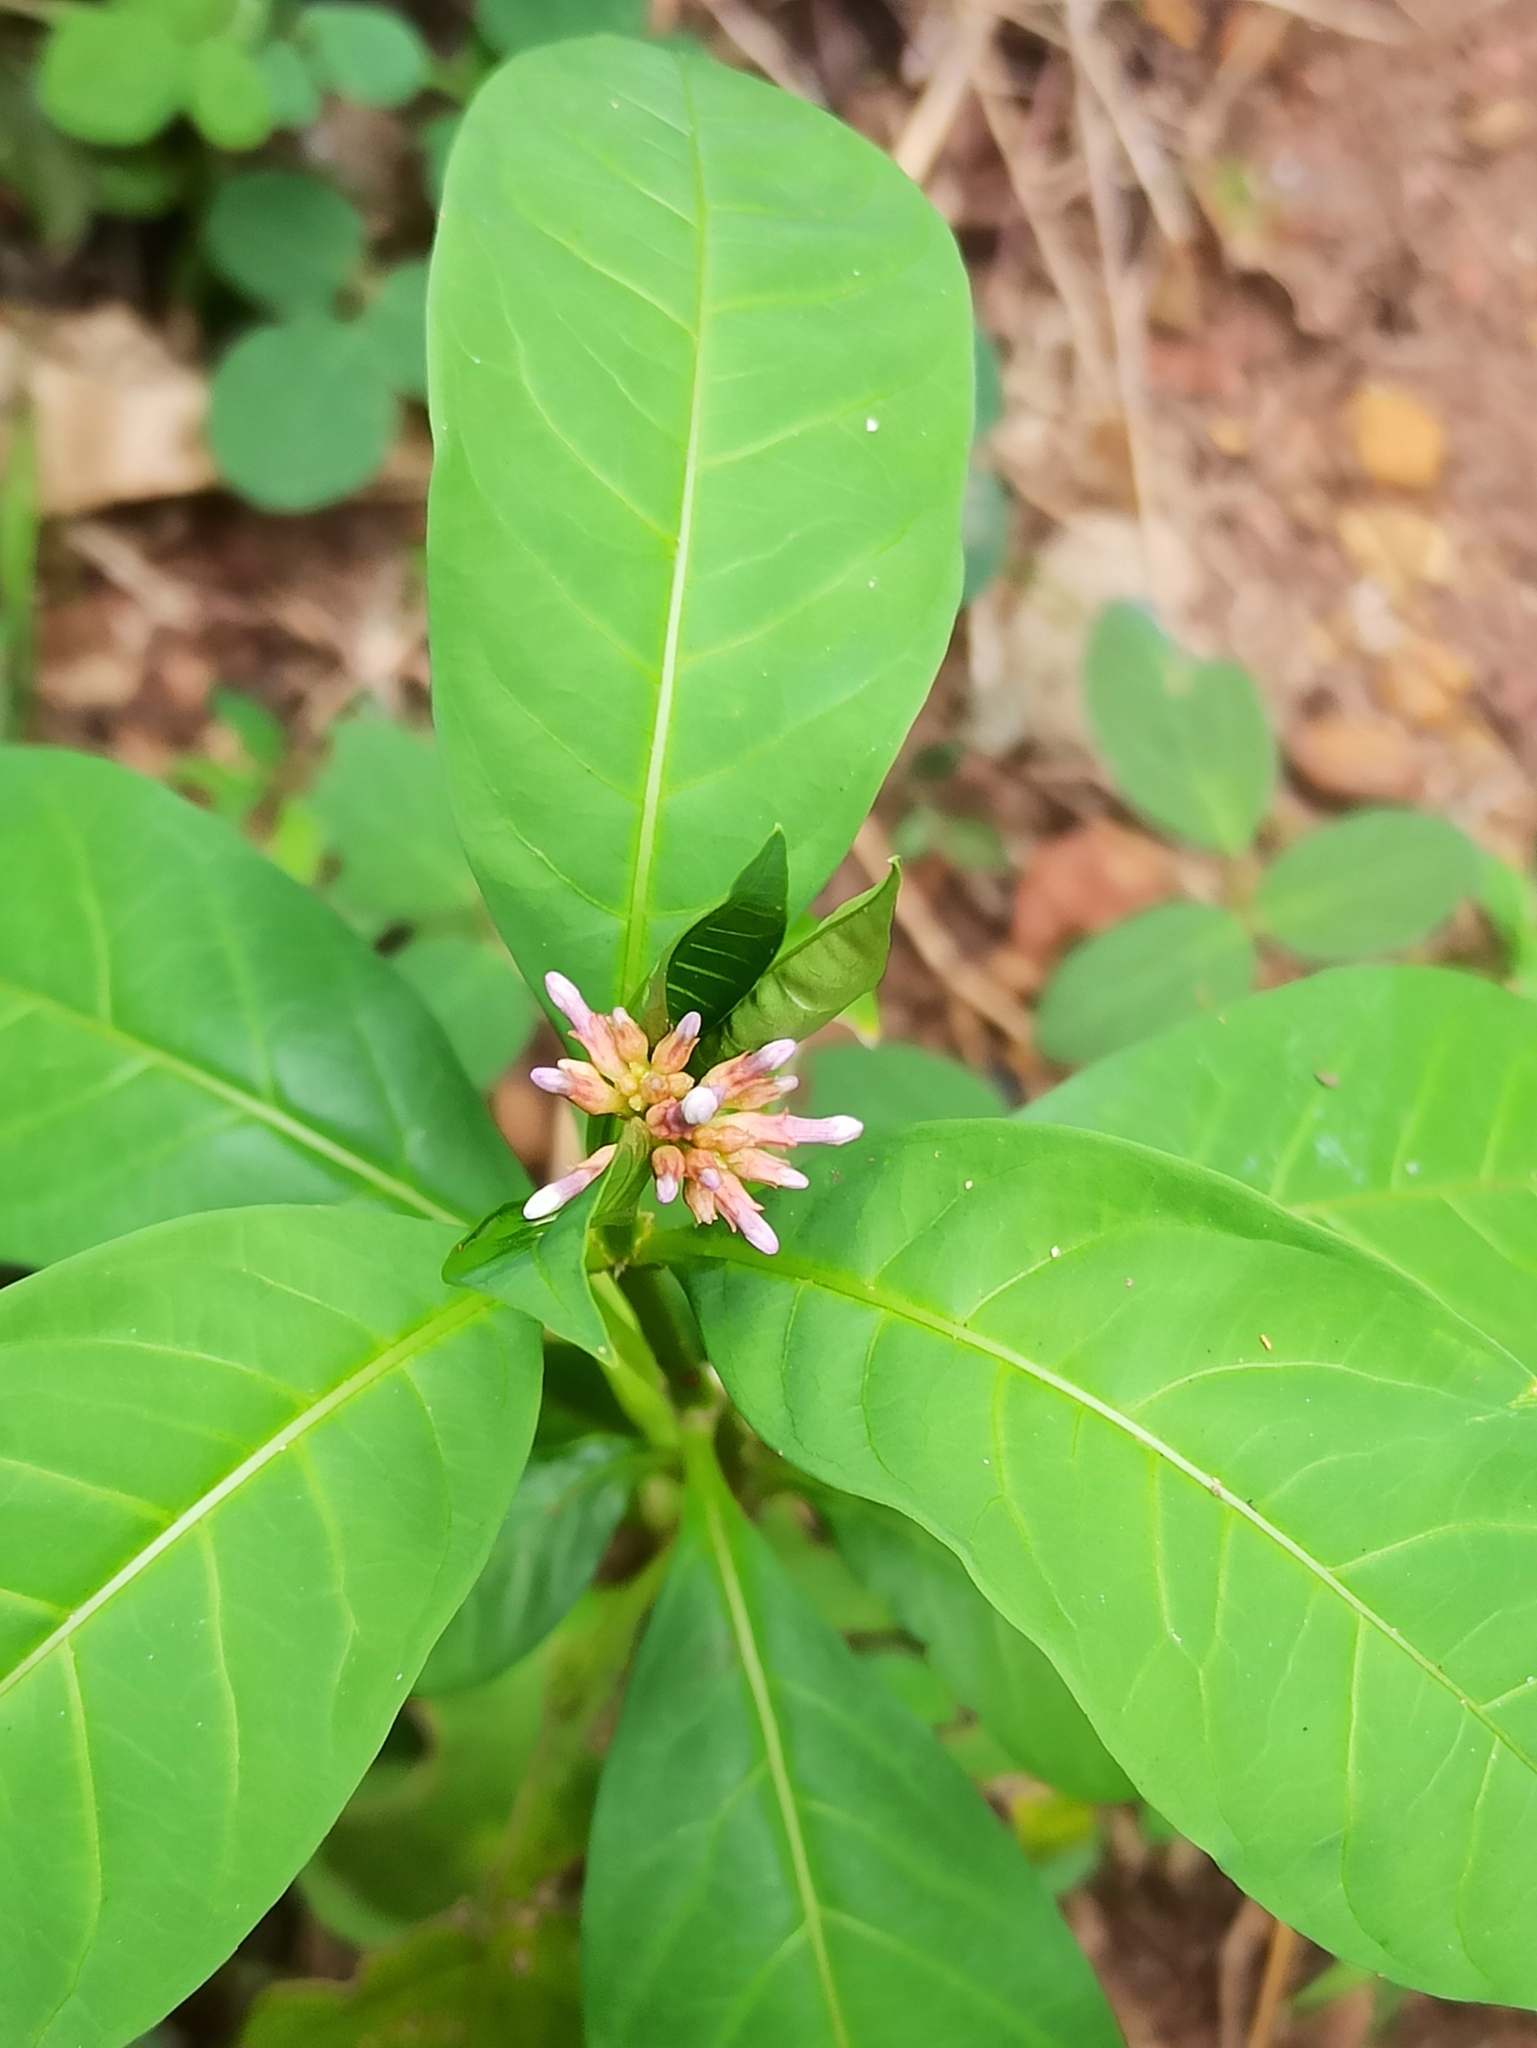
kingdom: Plantae
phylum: Tracheophyta
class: Magnoliopsida
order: Gentianales
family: Apocynaceae
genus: Rauvolfia
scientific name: Rauvolfia serpentina
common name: Ajmaline
